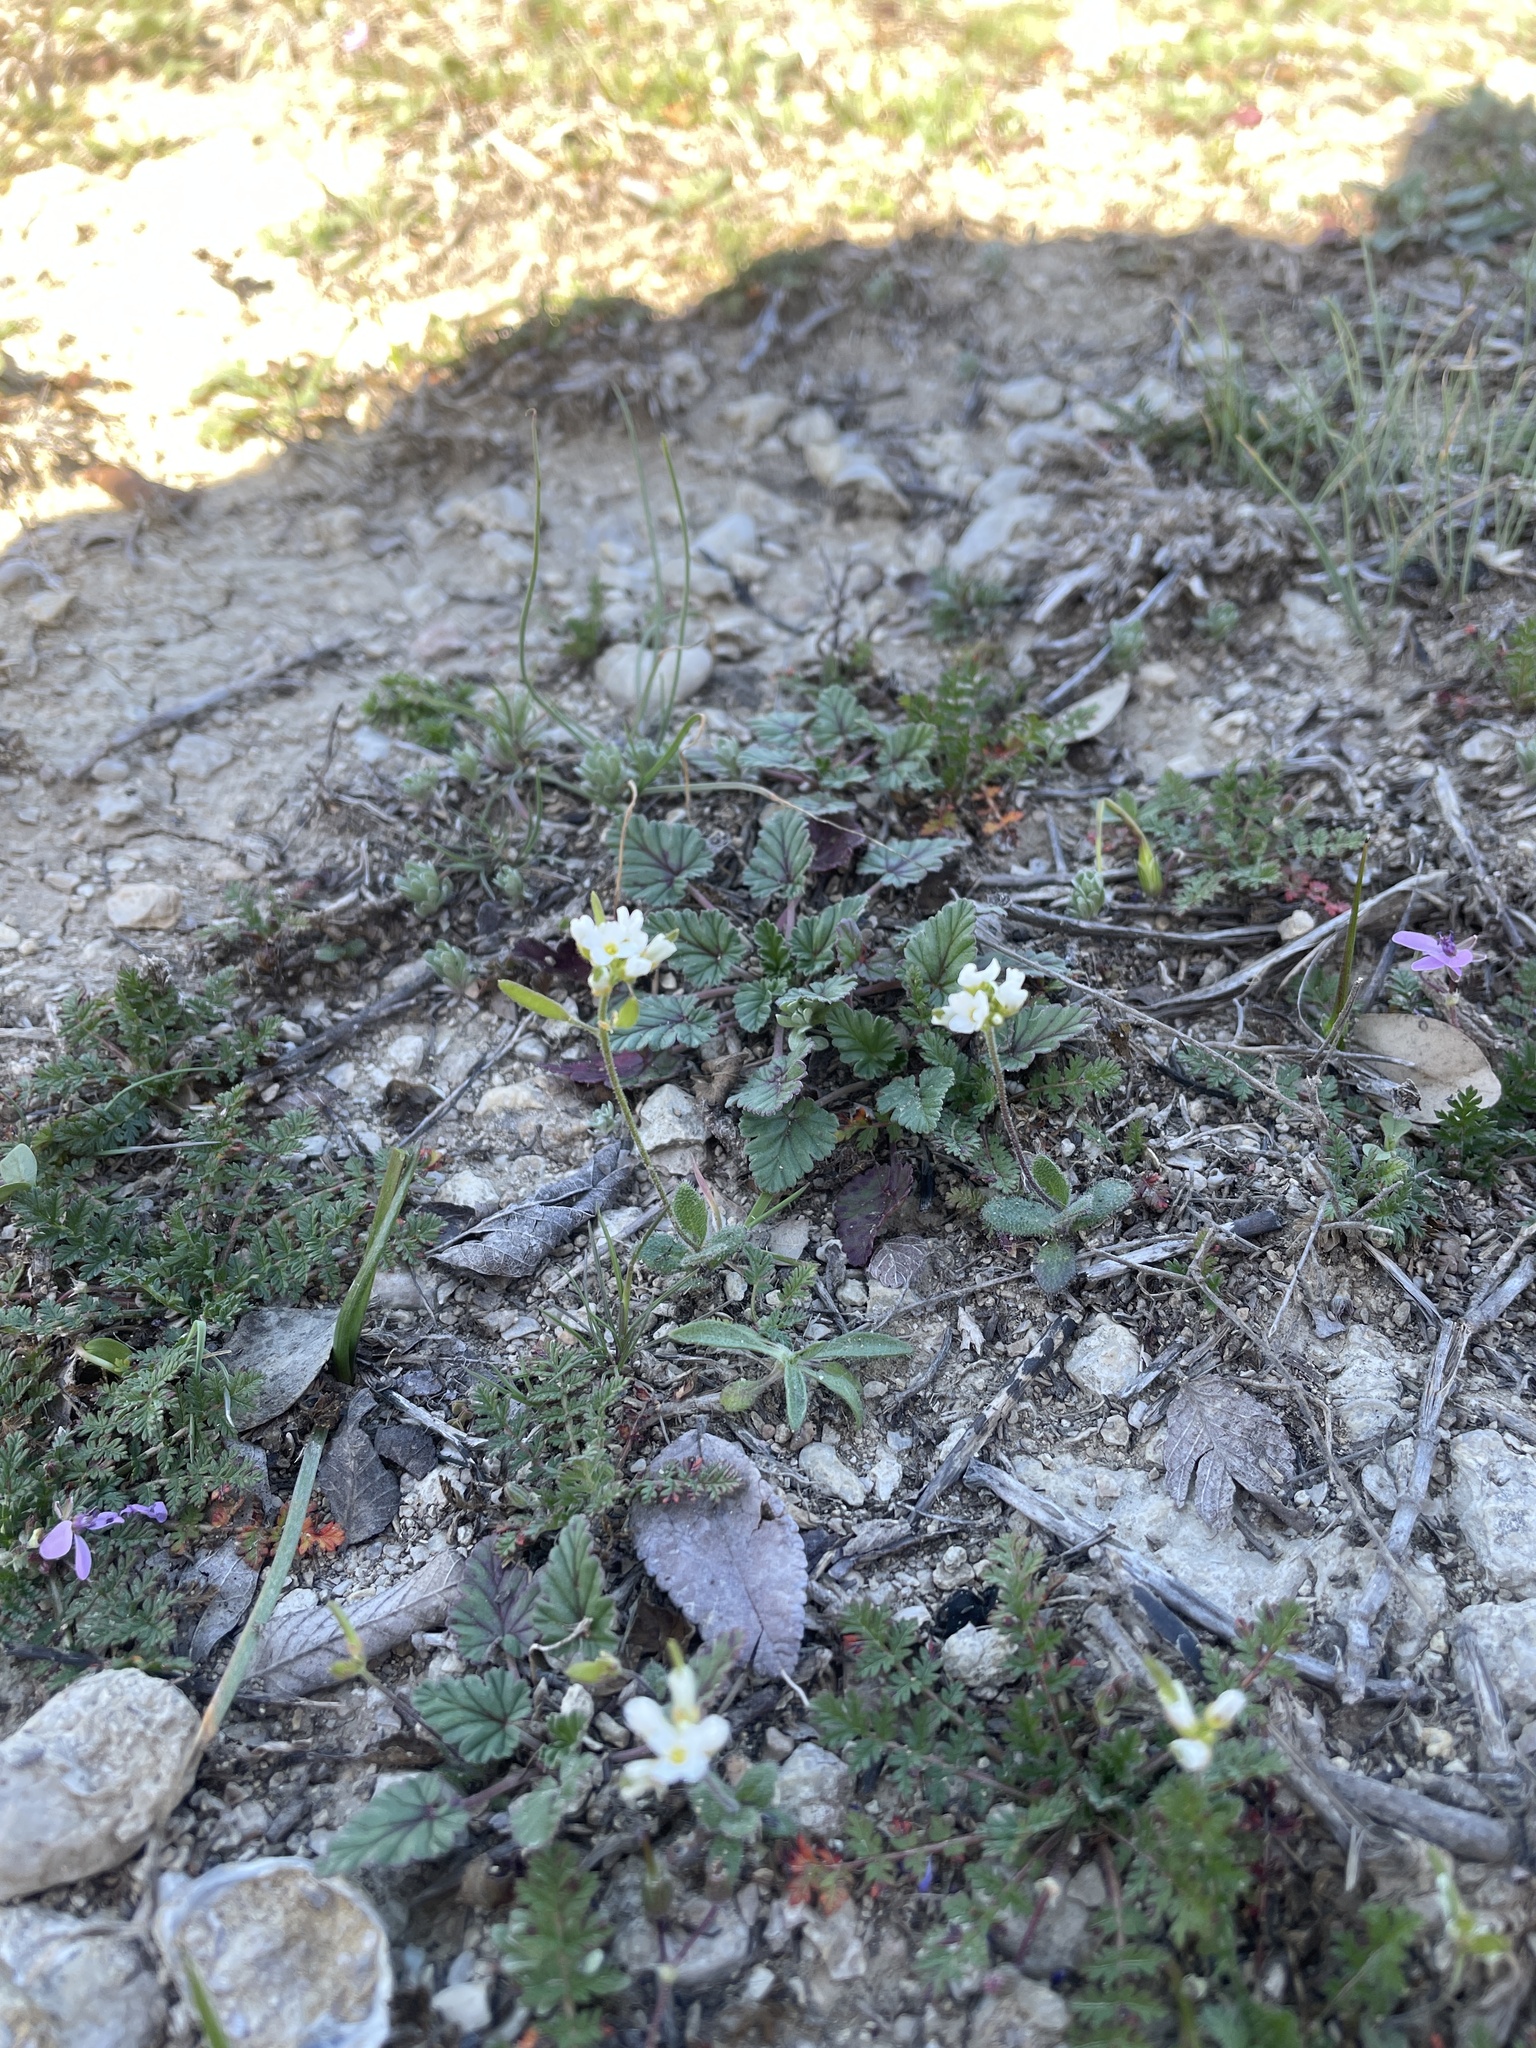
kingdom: Plantae
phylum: Tracheophyta
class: Magnoliopsida
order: Brassicales
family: Brassicaceae
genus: Tomostima
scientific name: Tomostima cuneifolia
